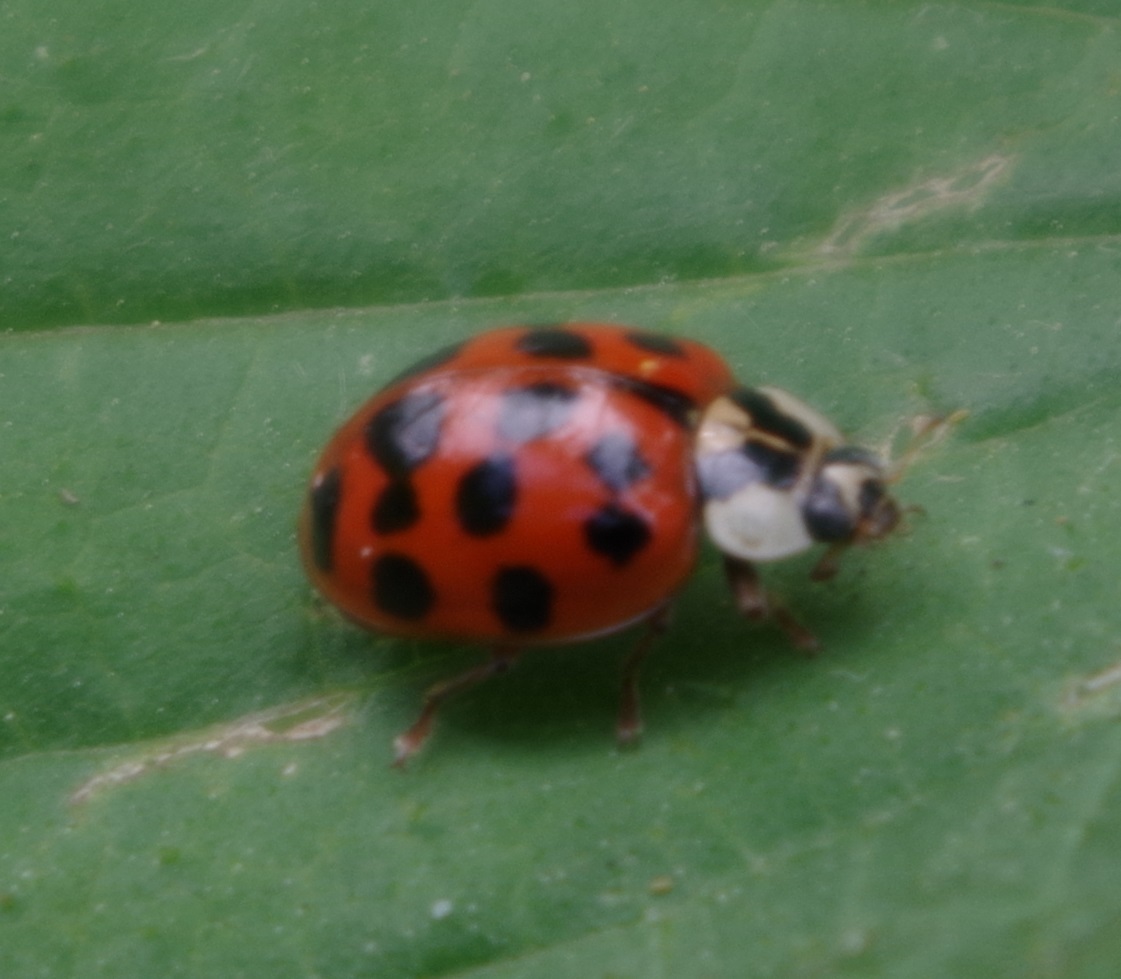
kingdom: Animalia
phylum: Arthropoda
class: Insecta
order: Coleoptera
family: Coccinellidae
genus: Harmonia
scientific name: Harmonia axyridis
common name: Harlequin ladybird
